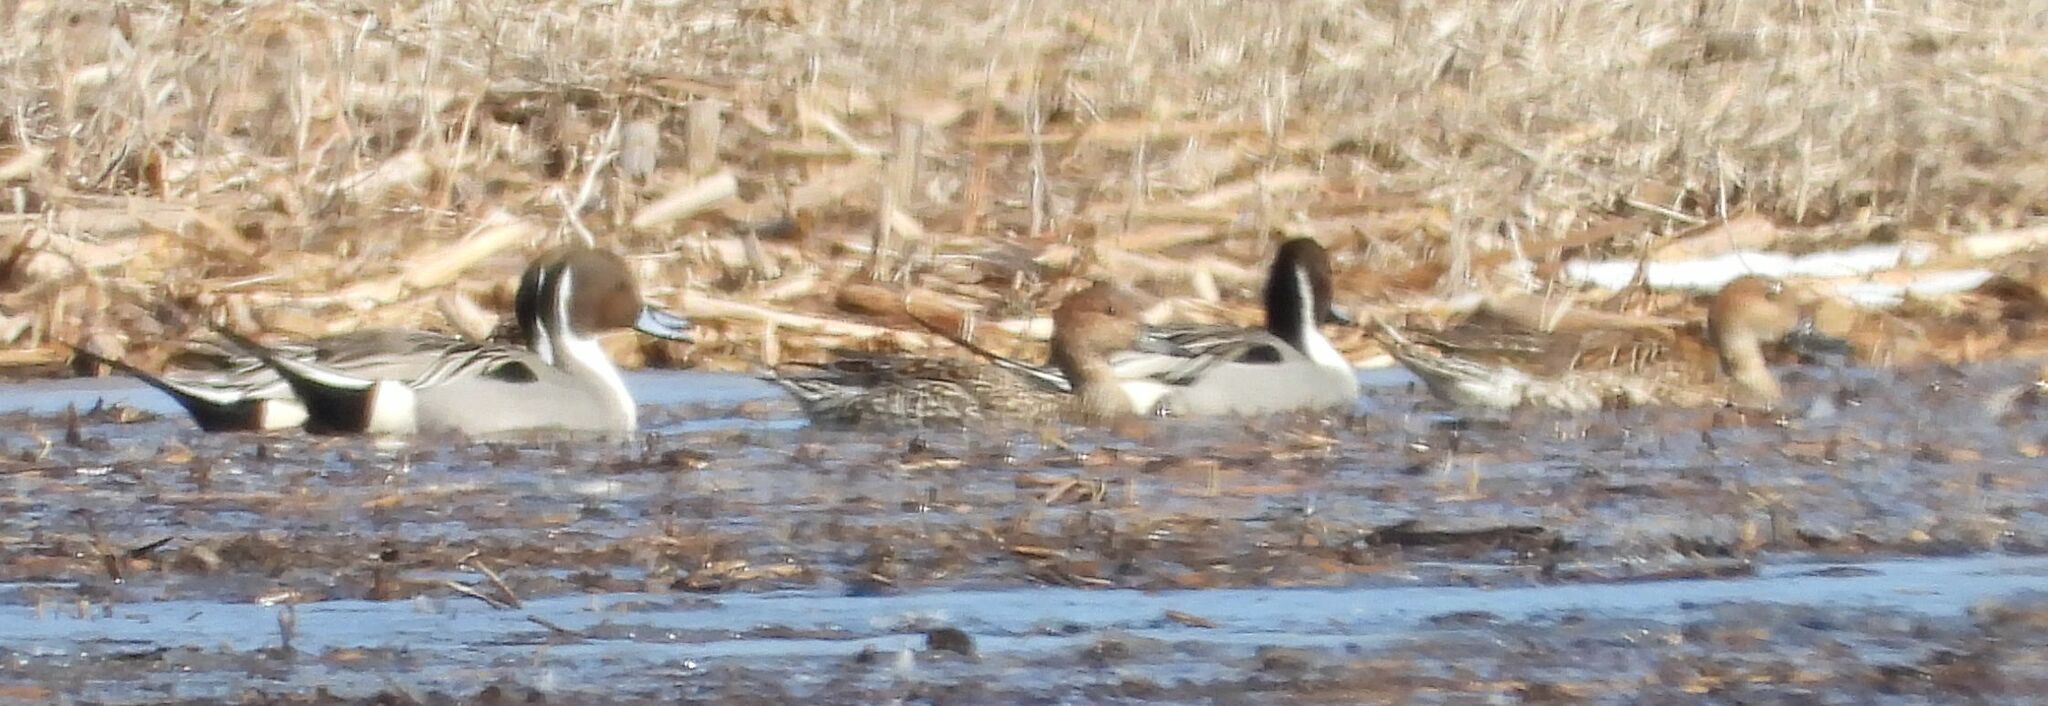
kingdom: Animalia
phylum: Chordata
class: Aves
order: Anseriformes
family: Anatidae
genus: Anas
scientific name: Anas acuta
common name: Northern pintail
